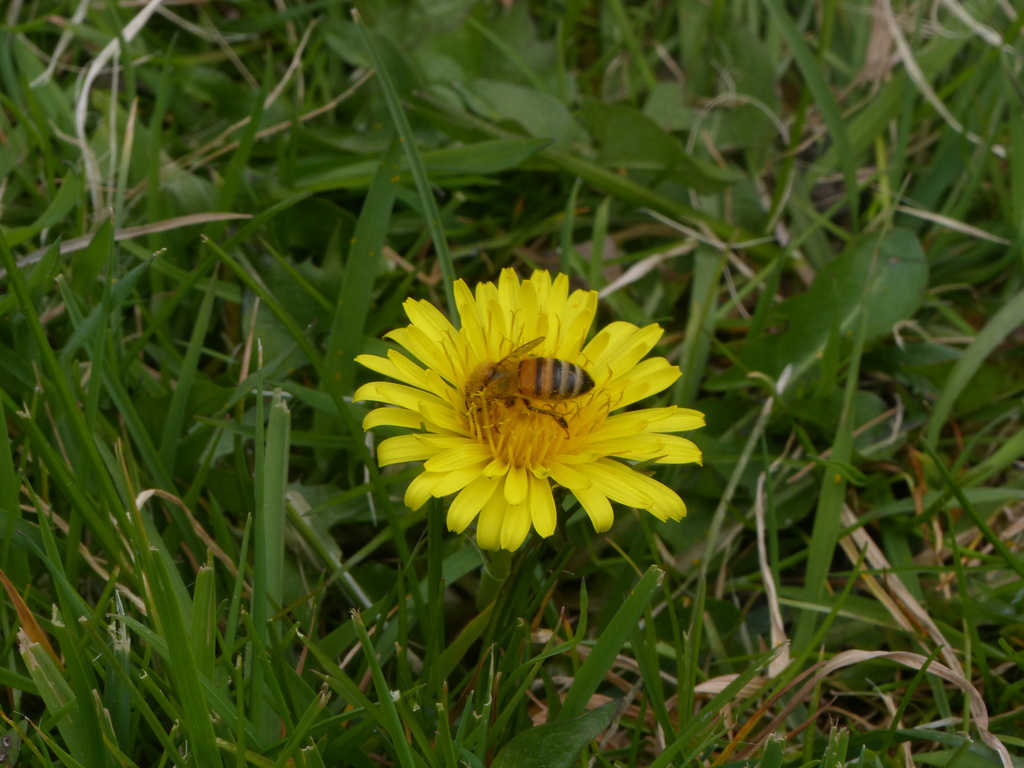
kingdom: Animalia
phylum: Arthropoda
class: Insecta
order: Hymenoptera
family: Apidae
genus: Apis
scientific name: Apis mellifera
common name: Honey bee
